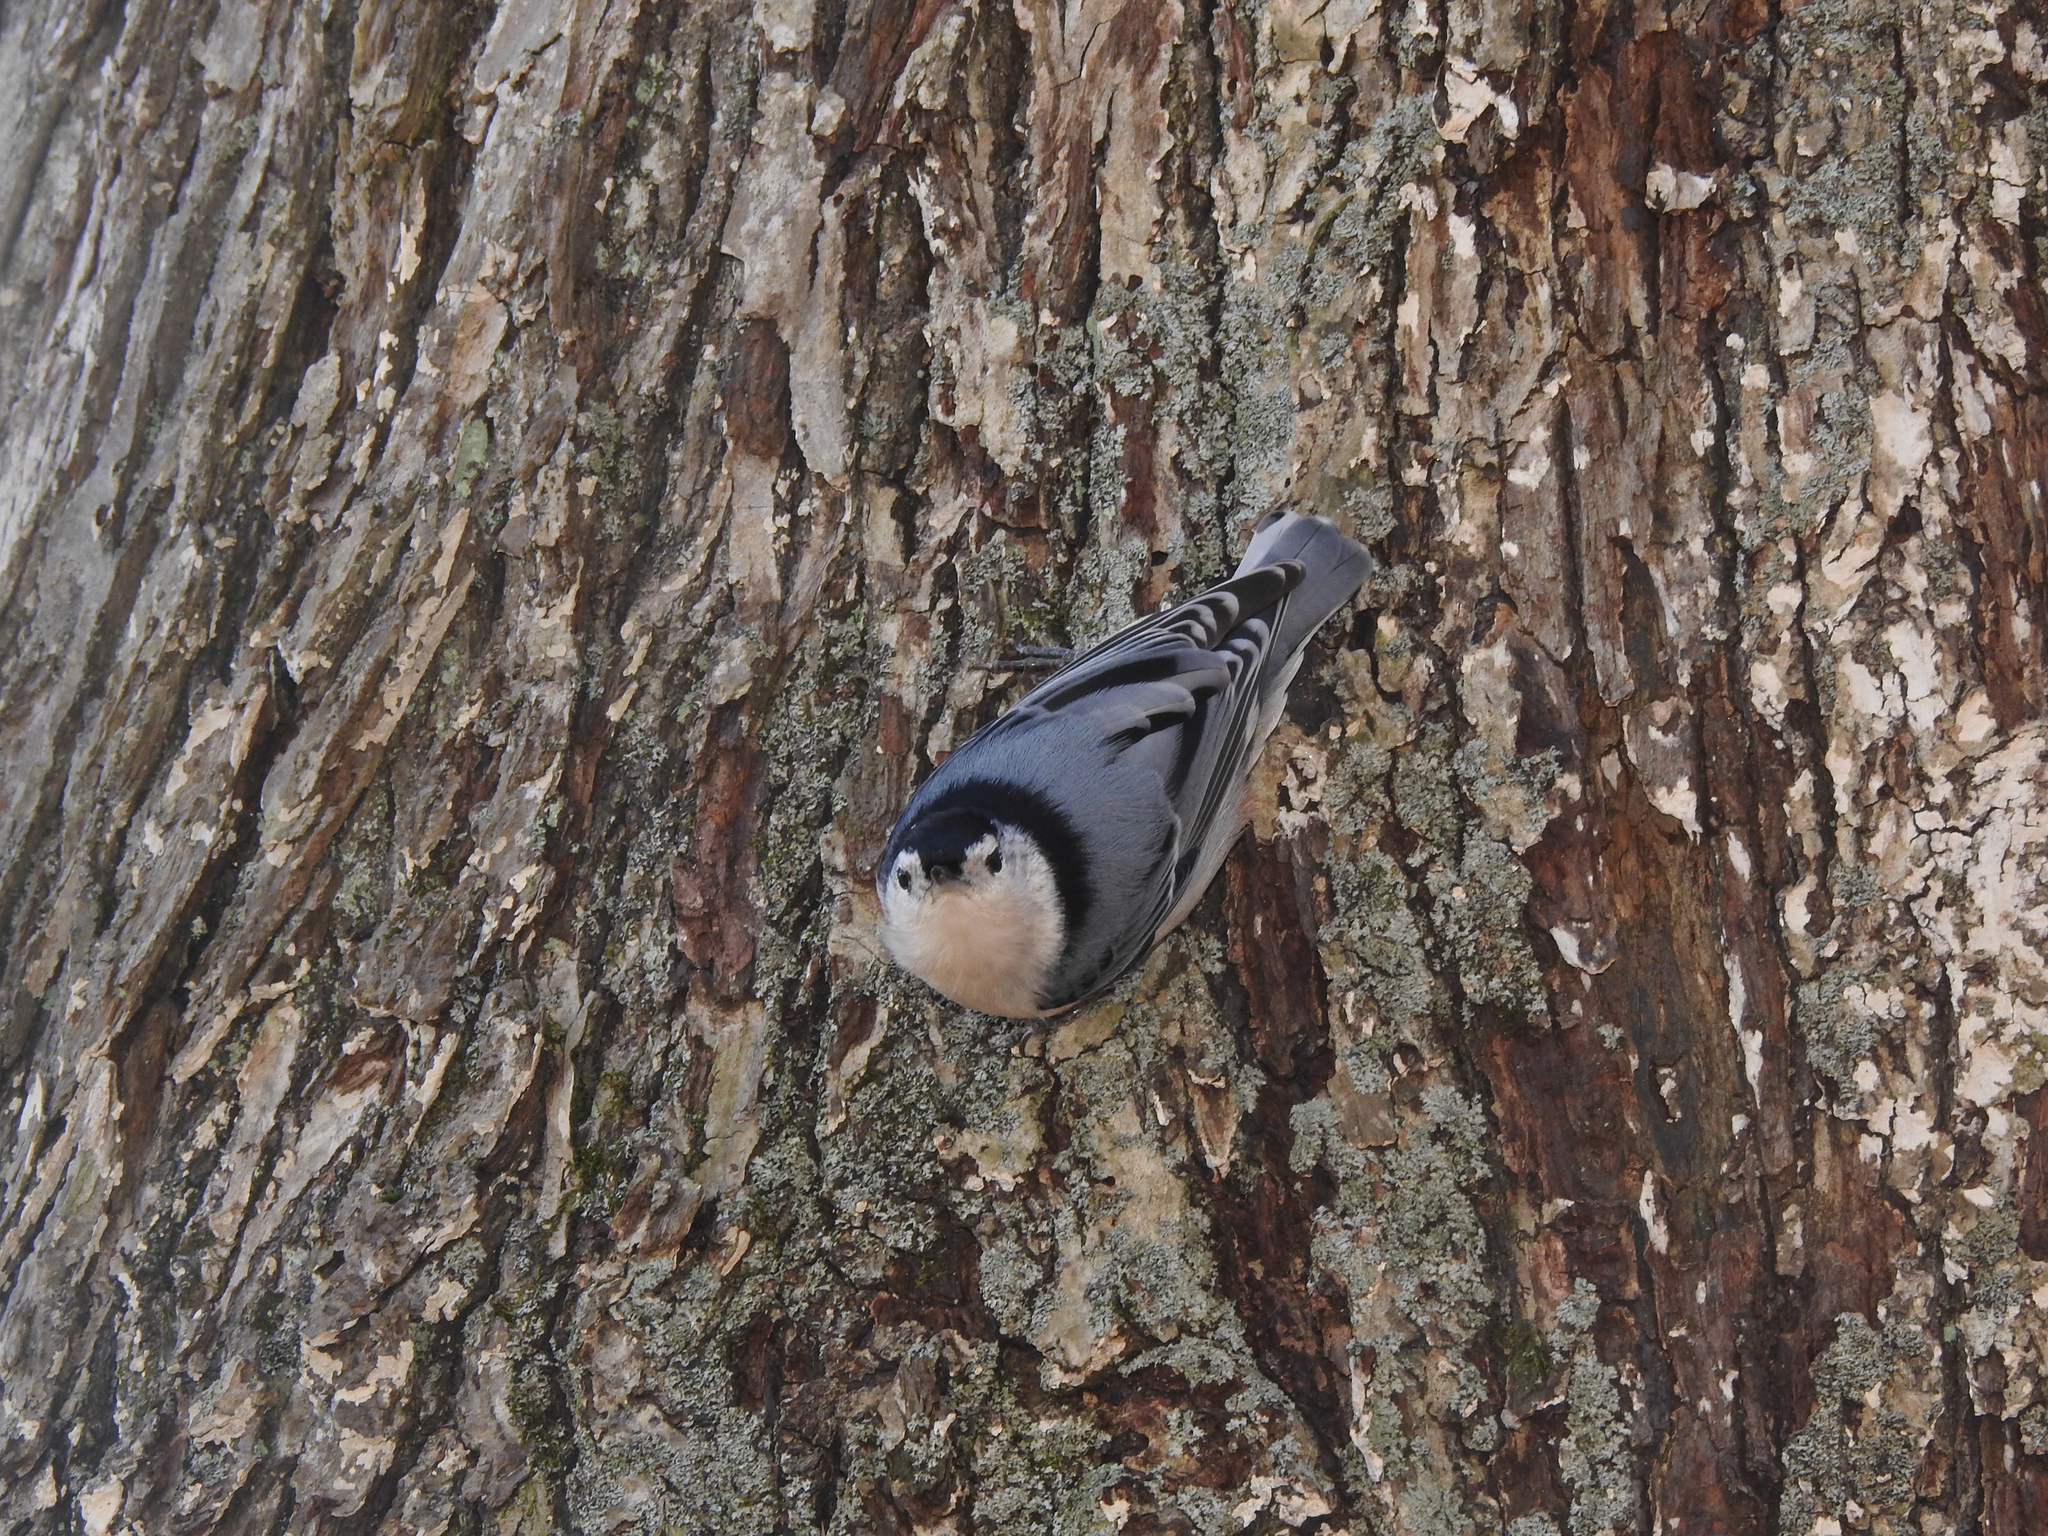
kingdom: Animalia
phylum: Chordata
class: Aves
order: Passeriformes
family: Sittidae
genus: Sitta
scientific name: Sitta carolinensis
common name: White-breasted nuthatch
